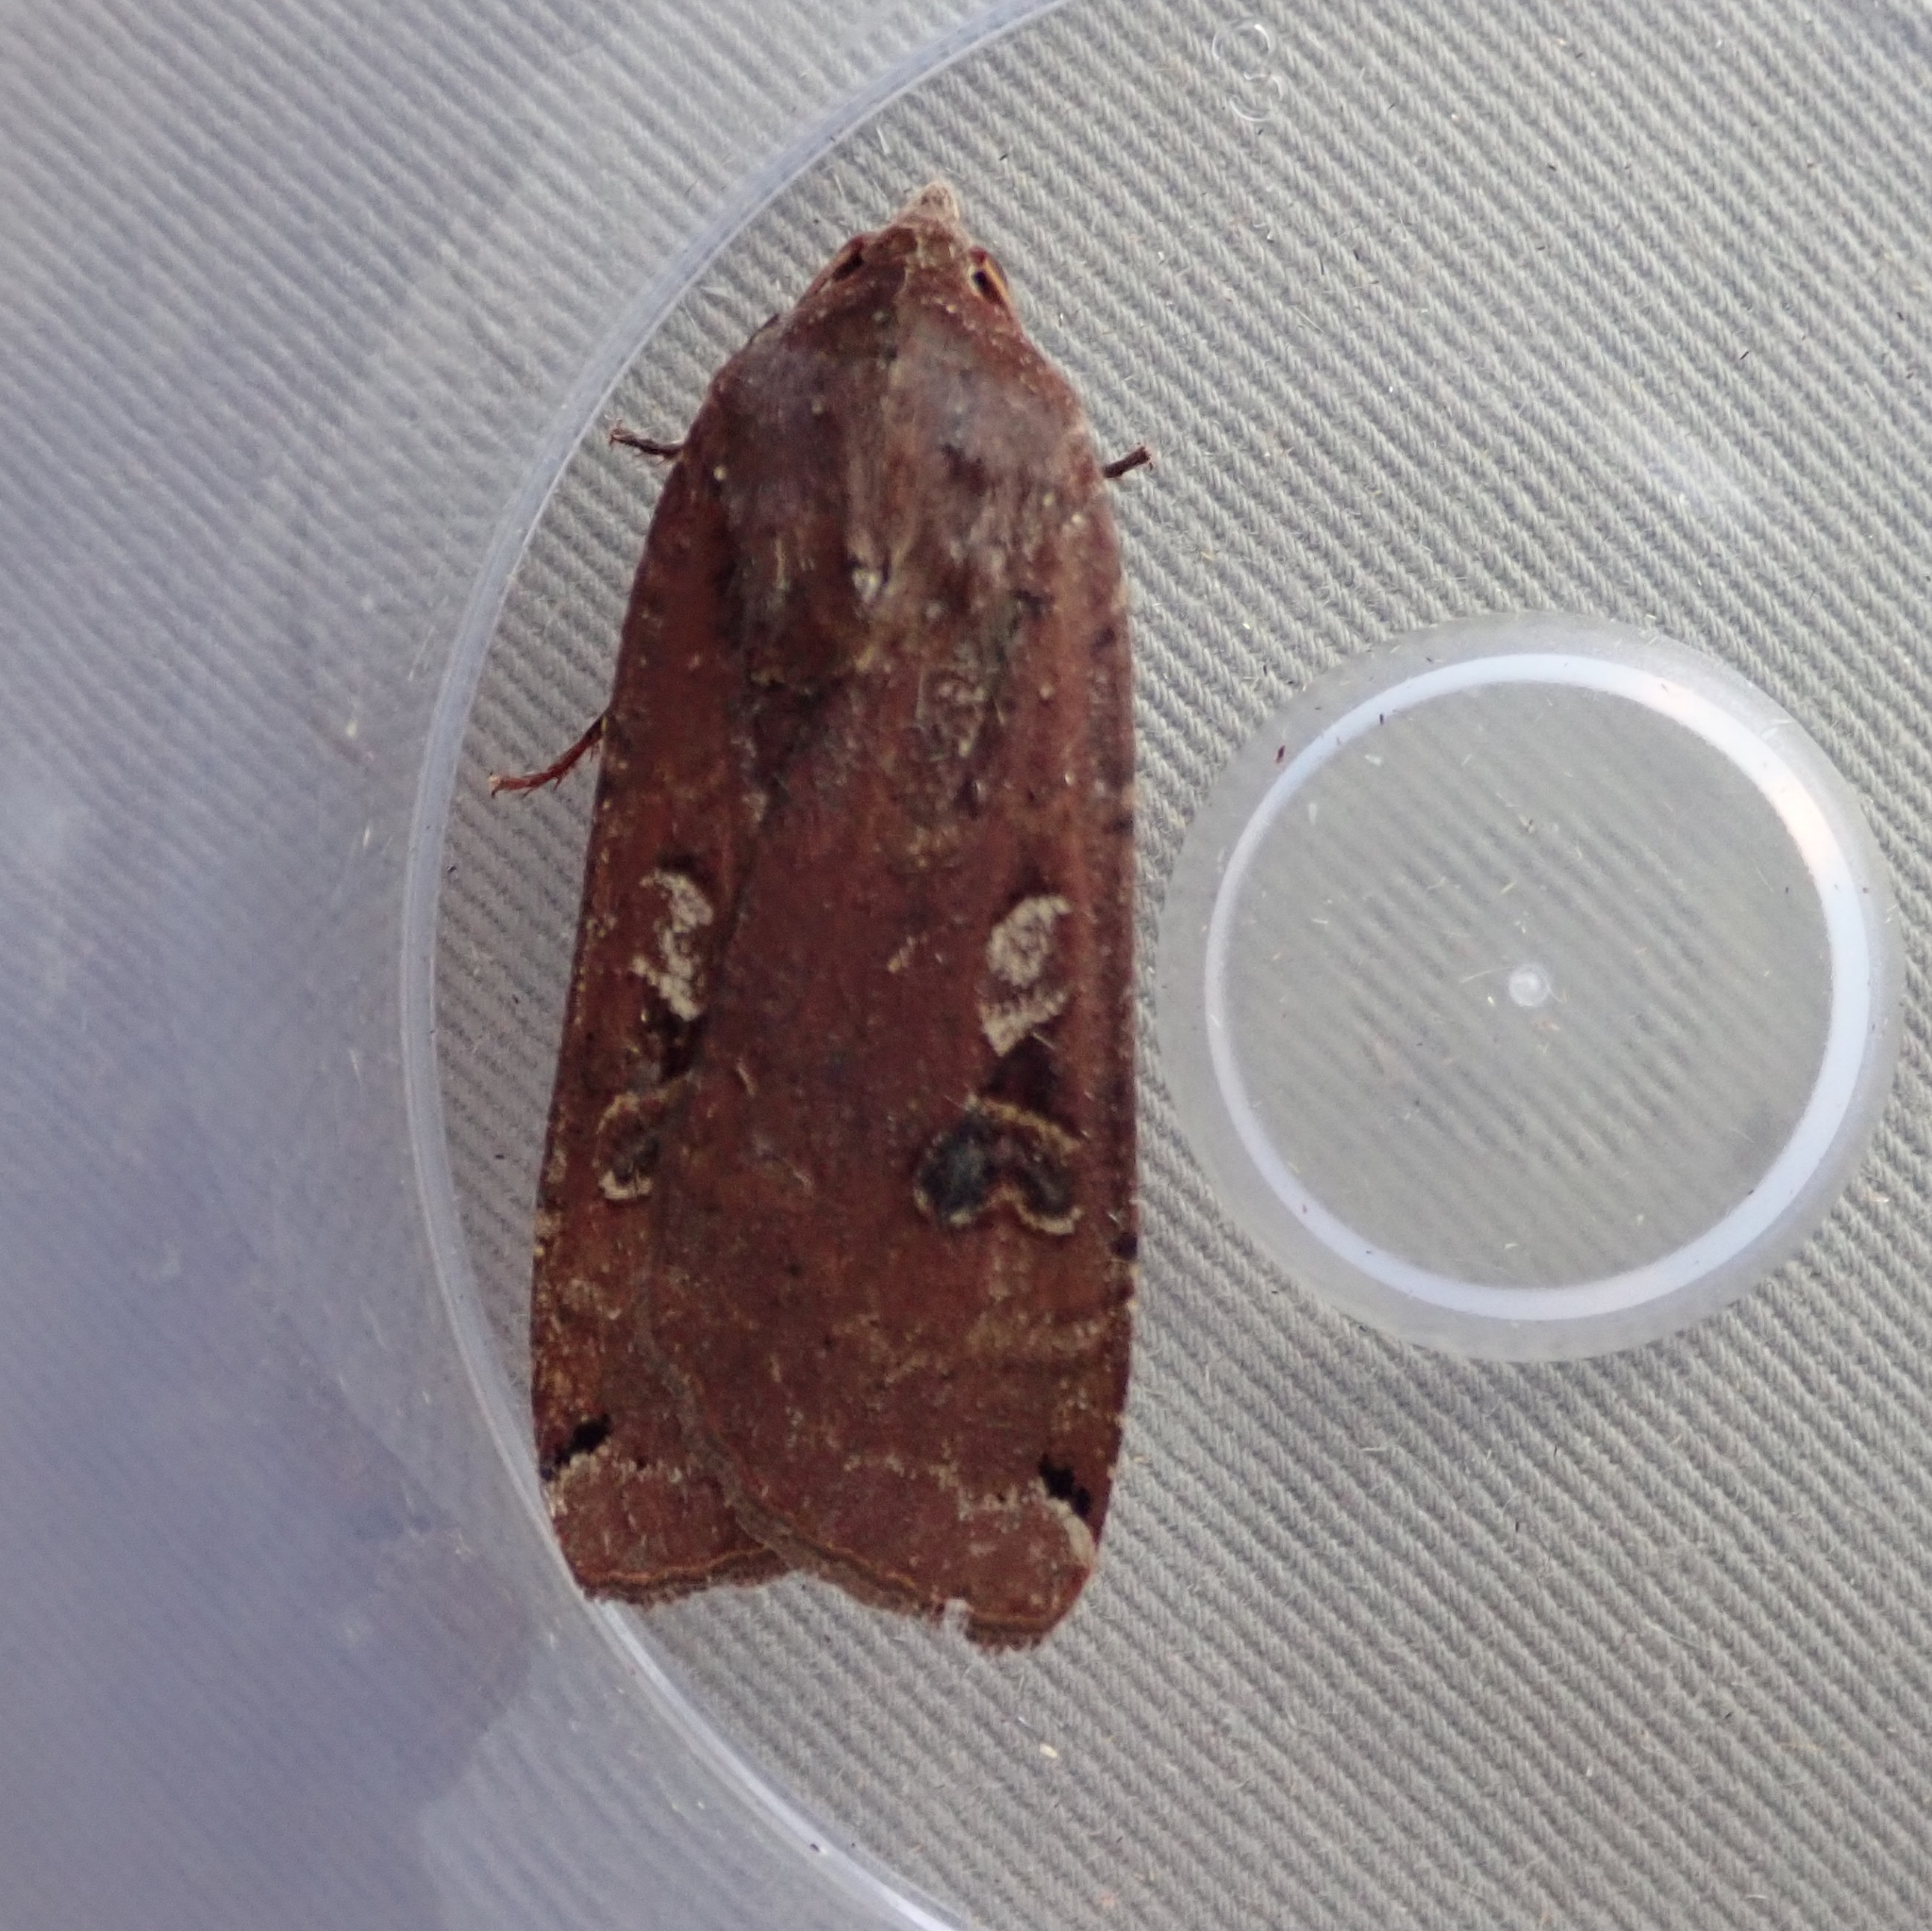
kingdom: Animalia
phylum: Arthropoda
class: Insecta
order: Lepidoptera
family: Noctuidae
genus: Noctua
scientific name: Noctua pronuba
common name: Large yellow underwing
